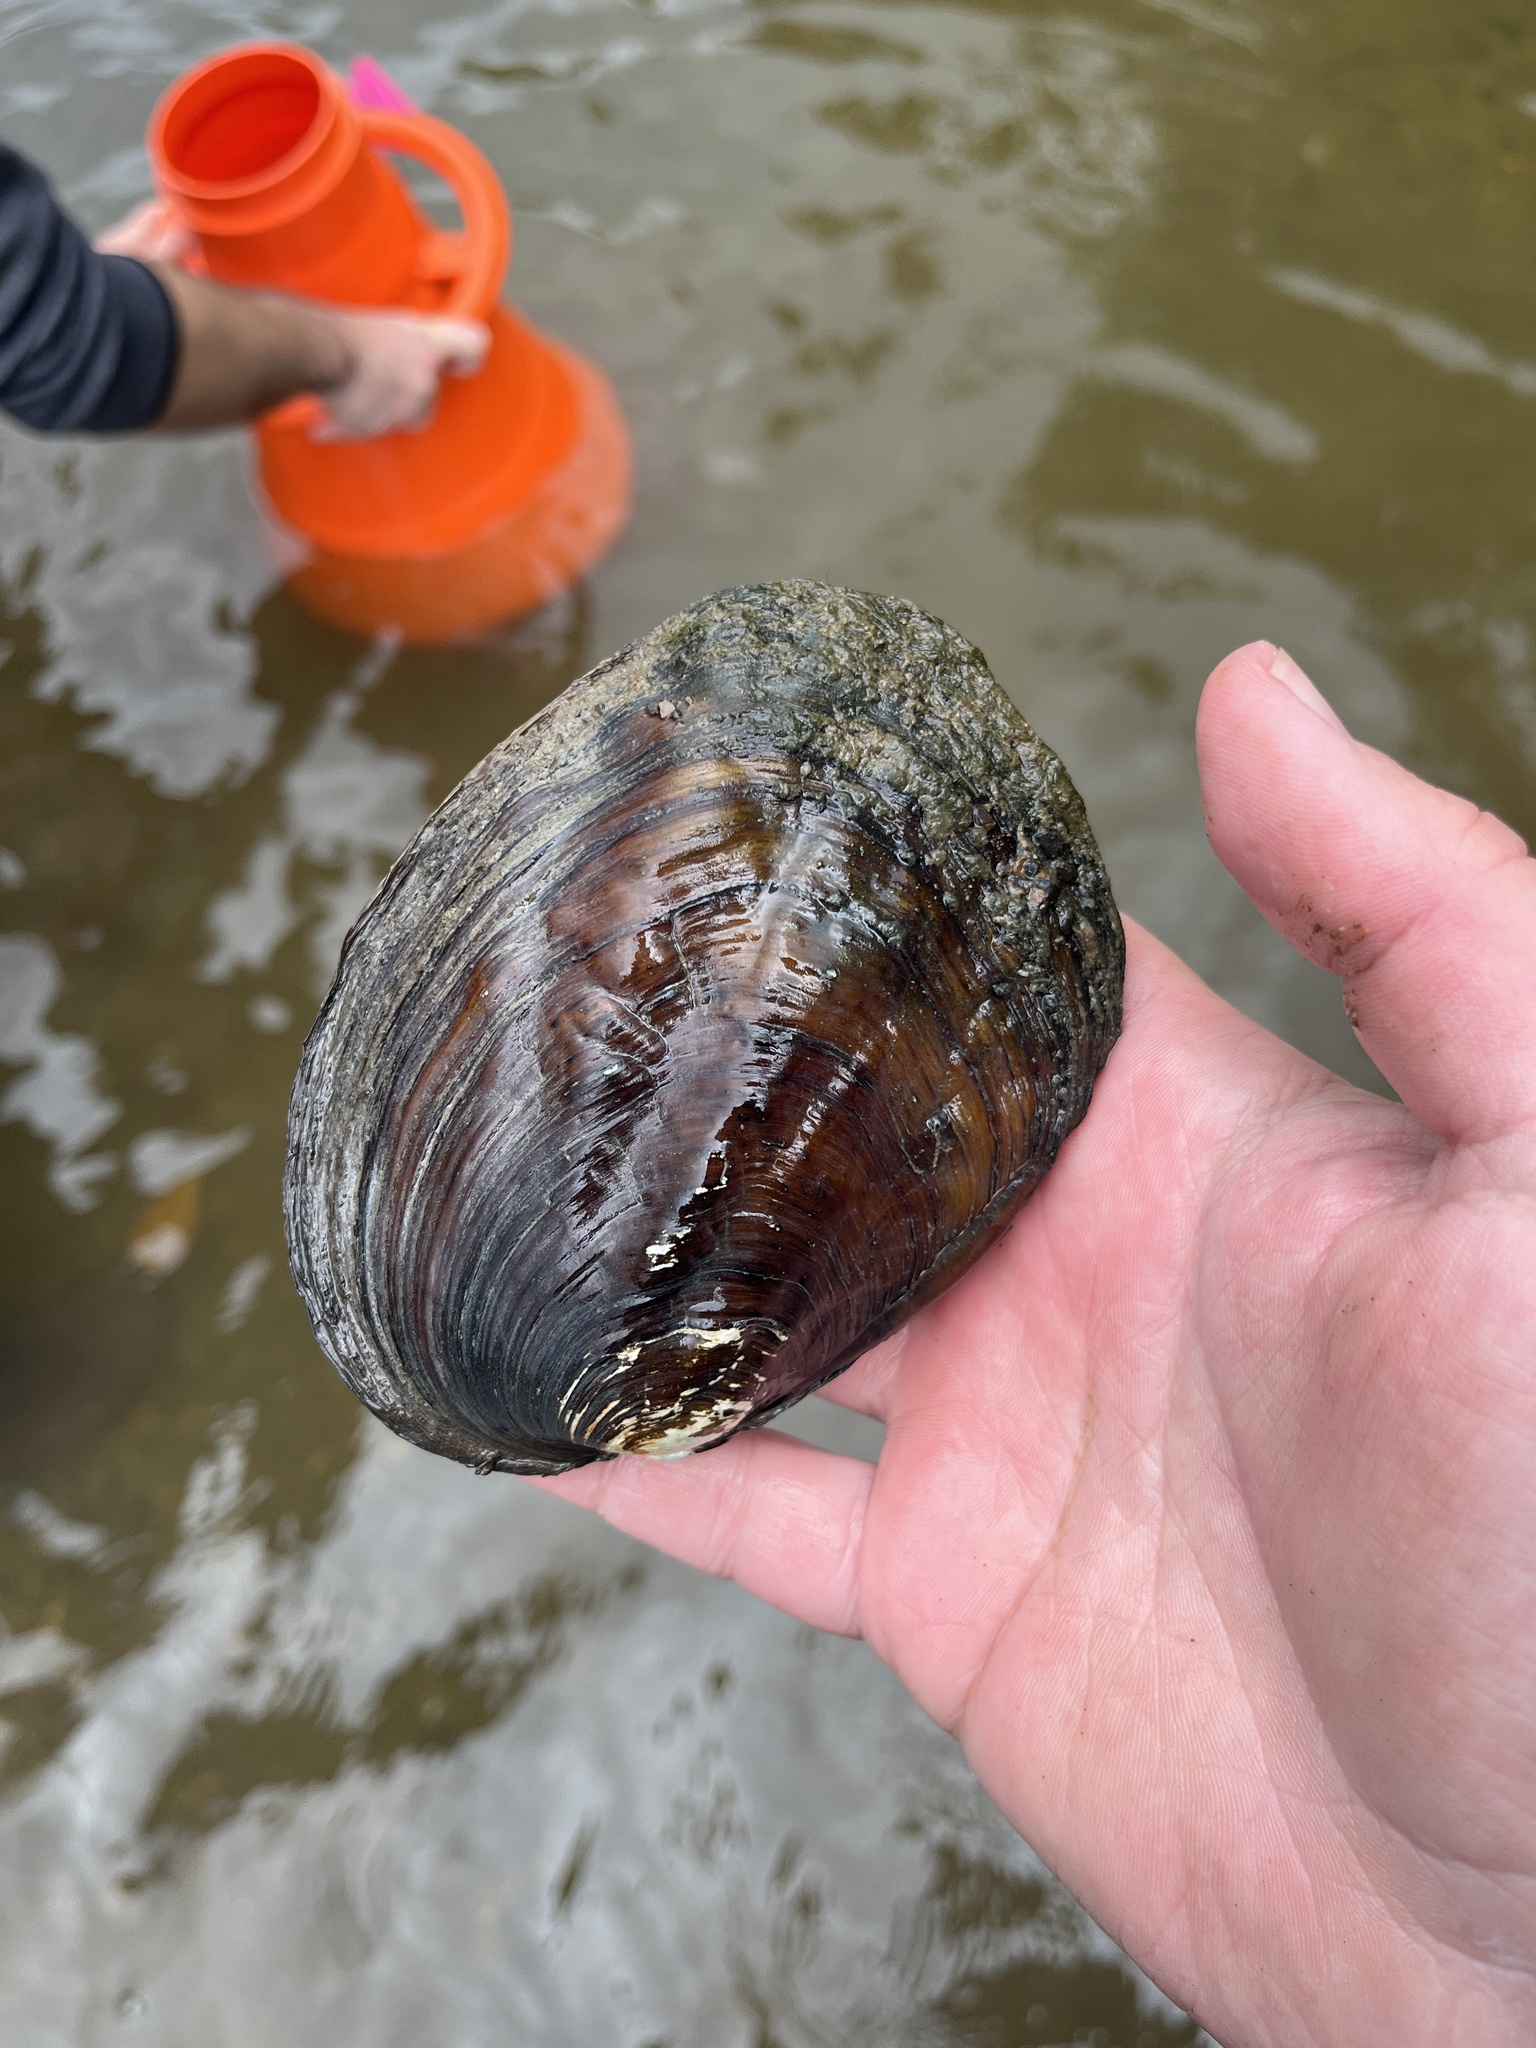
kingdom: Animalia
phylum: Mollusca
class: Bivalvia
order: Unionida
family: Unionidae
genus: Amblema
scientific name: Amblema plicata
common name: Threeridge
